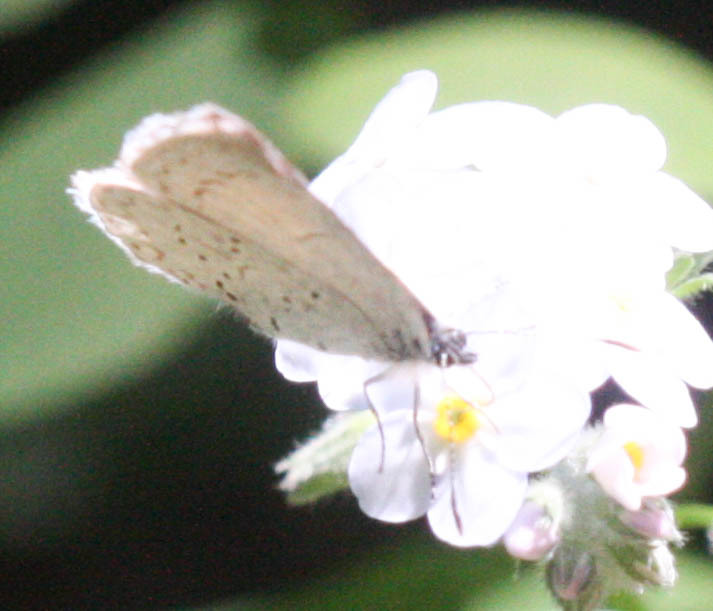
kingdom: Animalia
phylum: Arthropoda
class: Insecta
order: Lepidoptera
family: Lycaenidae
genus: Celastrina
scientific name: Celastrina ladon
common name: Spring azure
